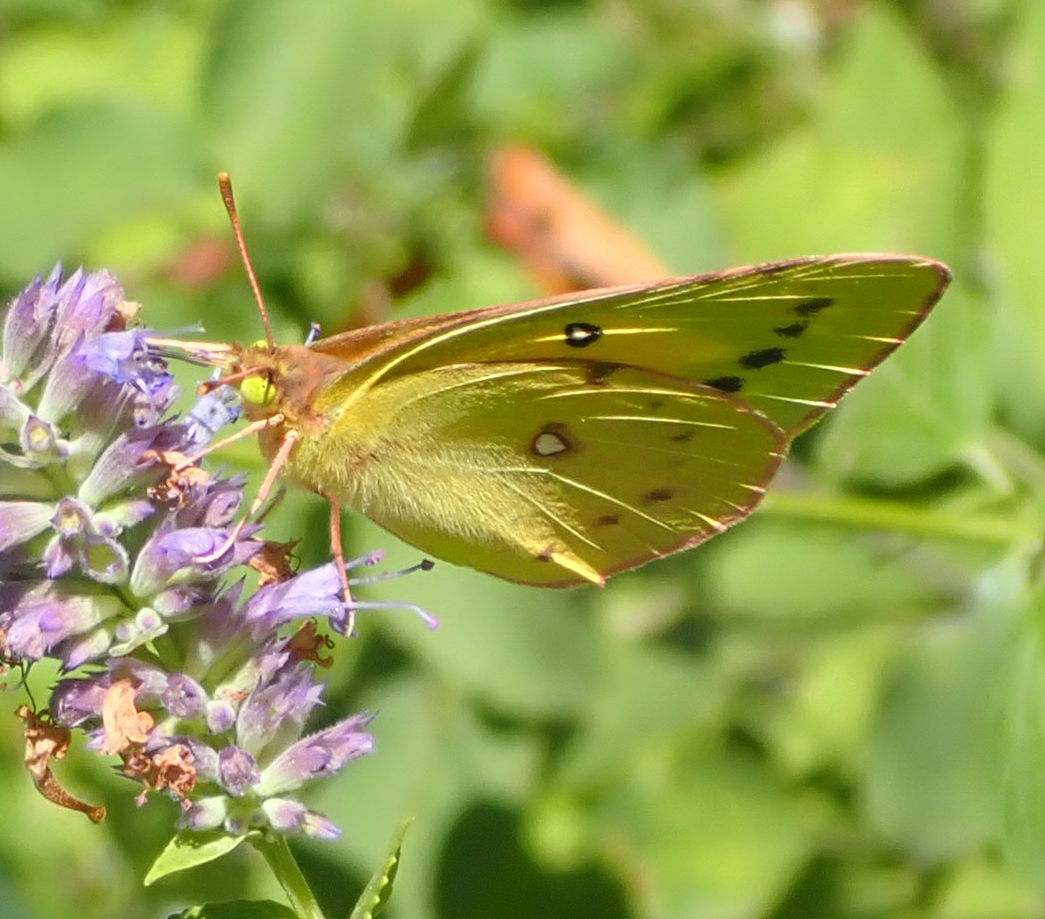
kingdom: Animalia
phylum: Arthropoda
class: Insecta
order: Lepidoptera
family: Pieridae
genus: Colias
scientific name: Colias eurytheme
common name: Alfalfa butterfly
